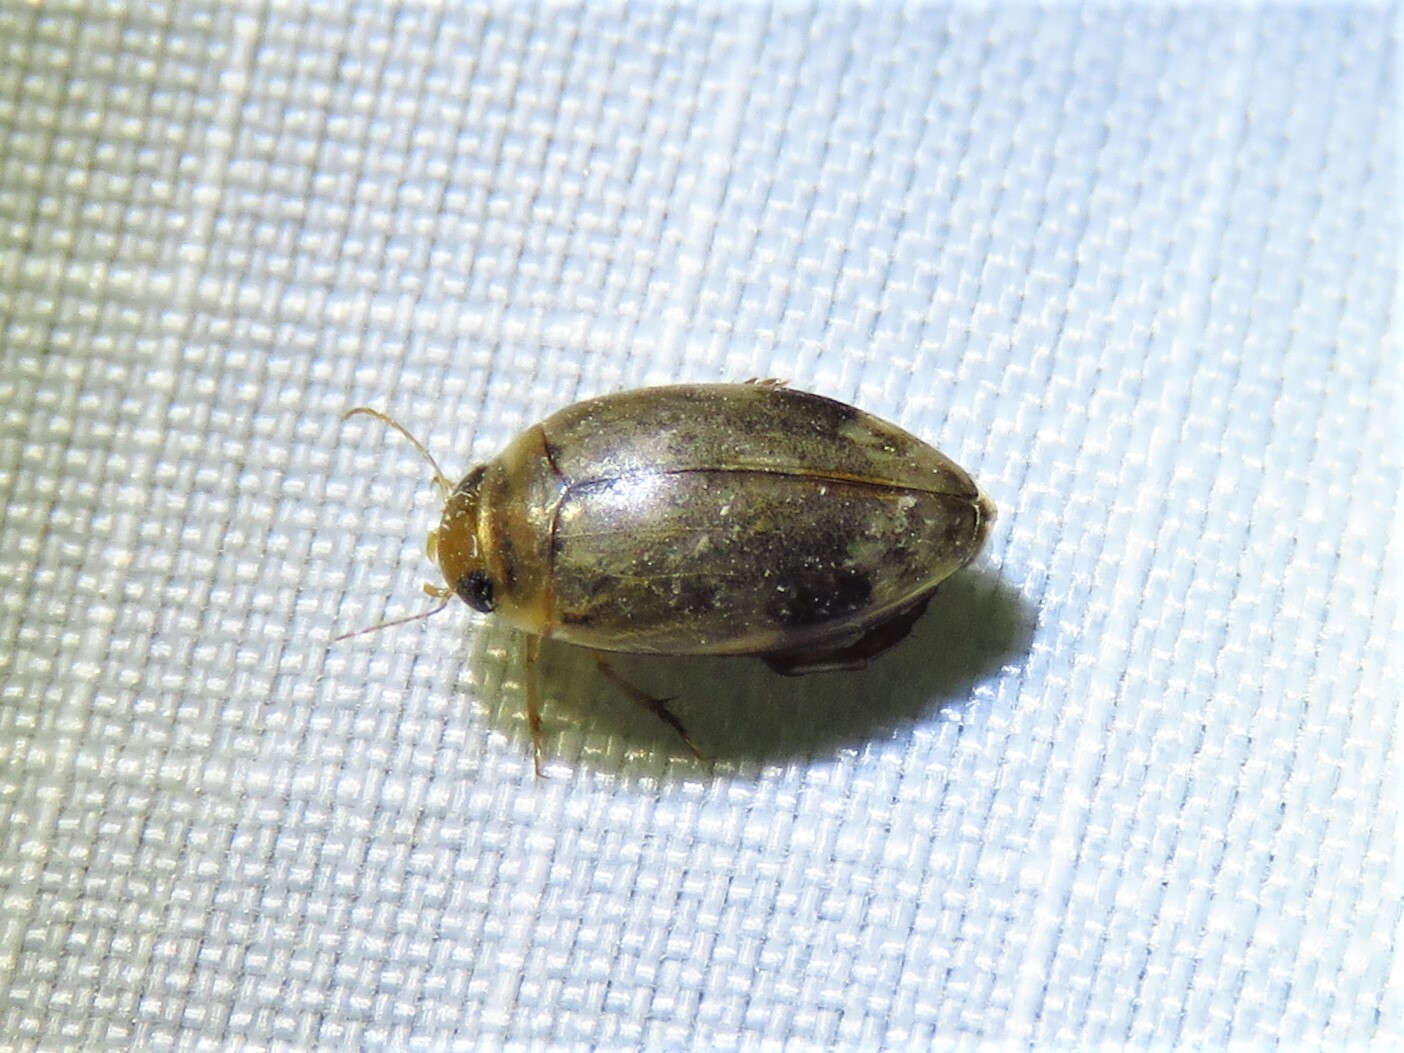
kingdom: Animalia
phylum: Arthropoda
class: Insecta
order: Coleoptera
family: Dytiscidae
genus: Laccophilus
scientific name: Laccophilus
